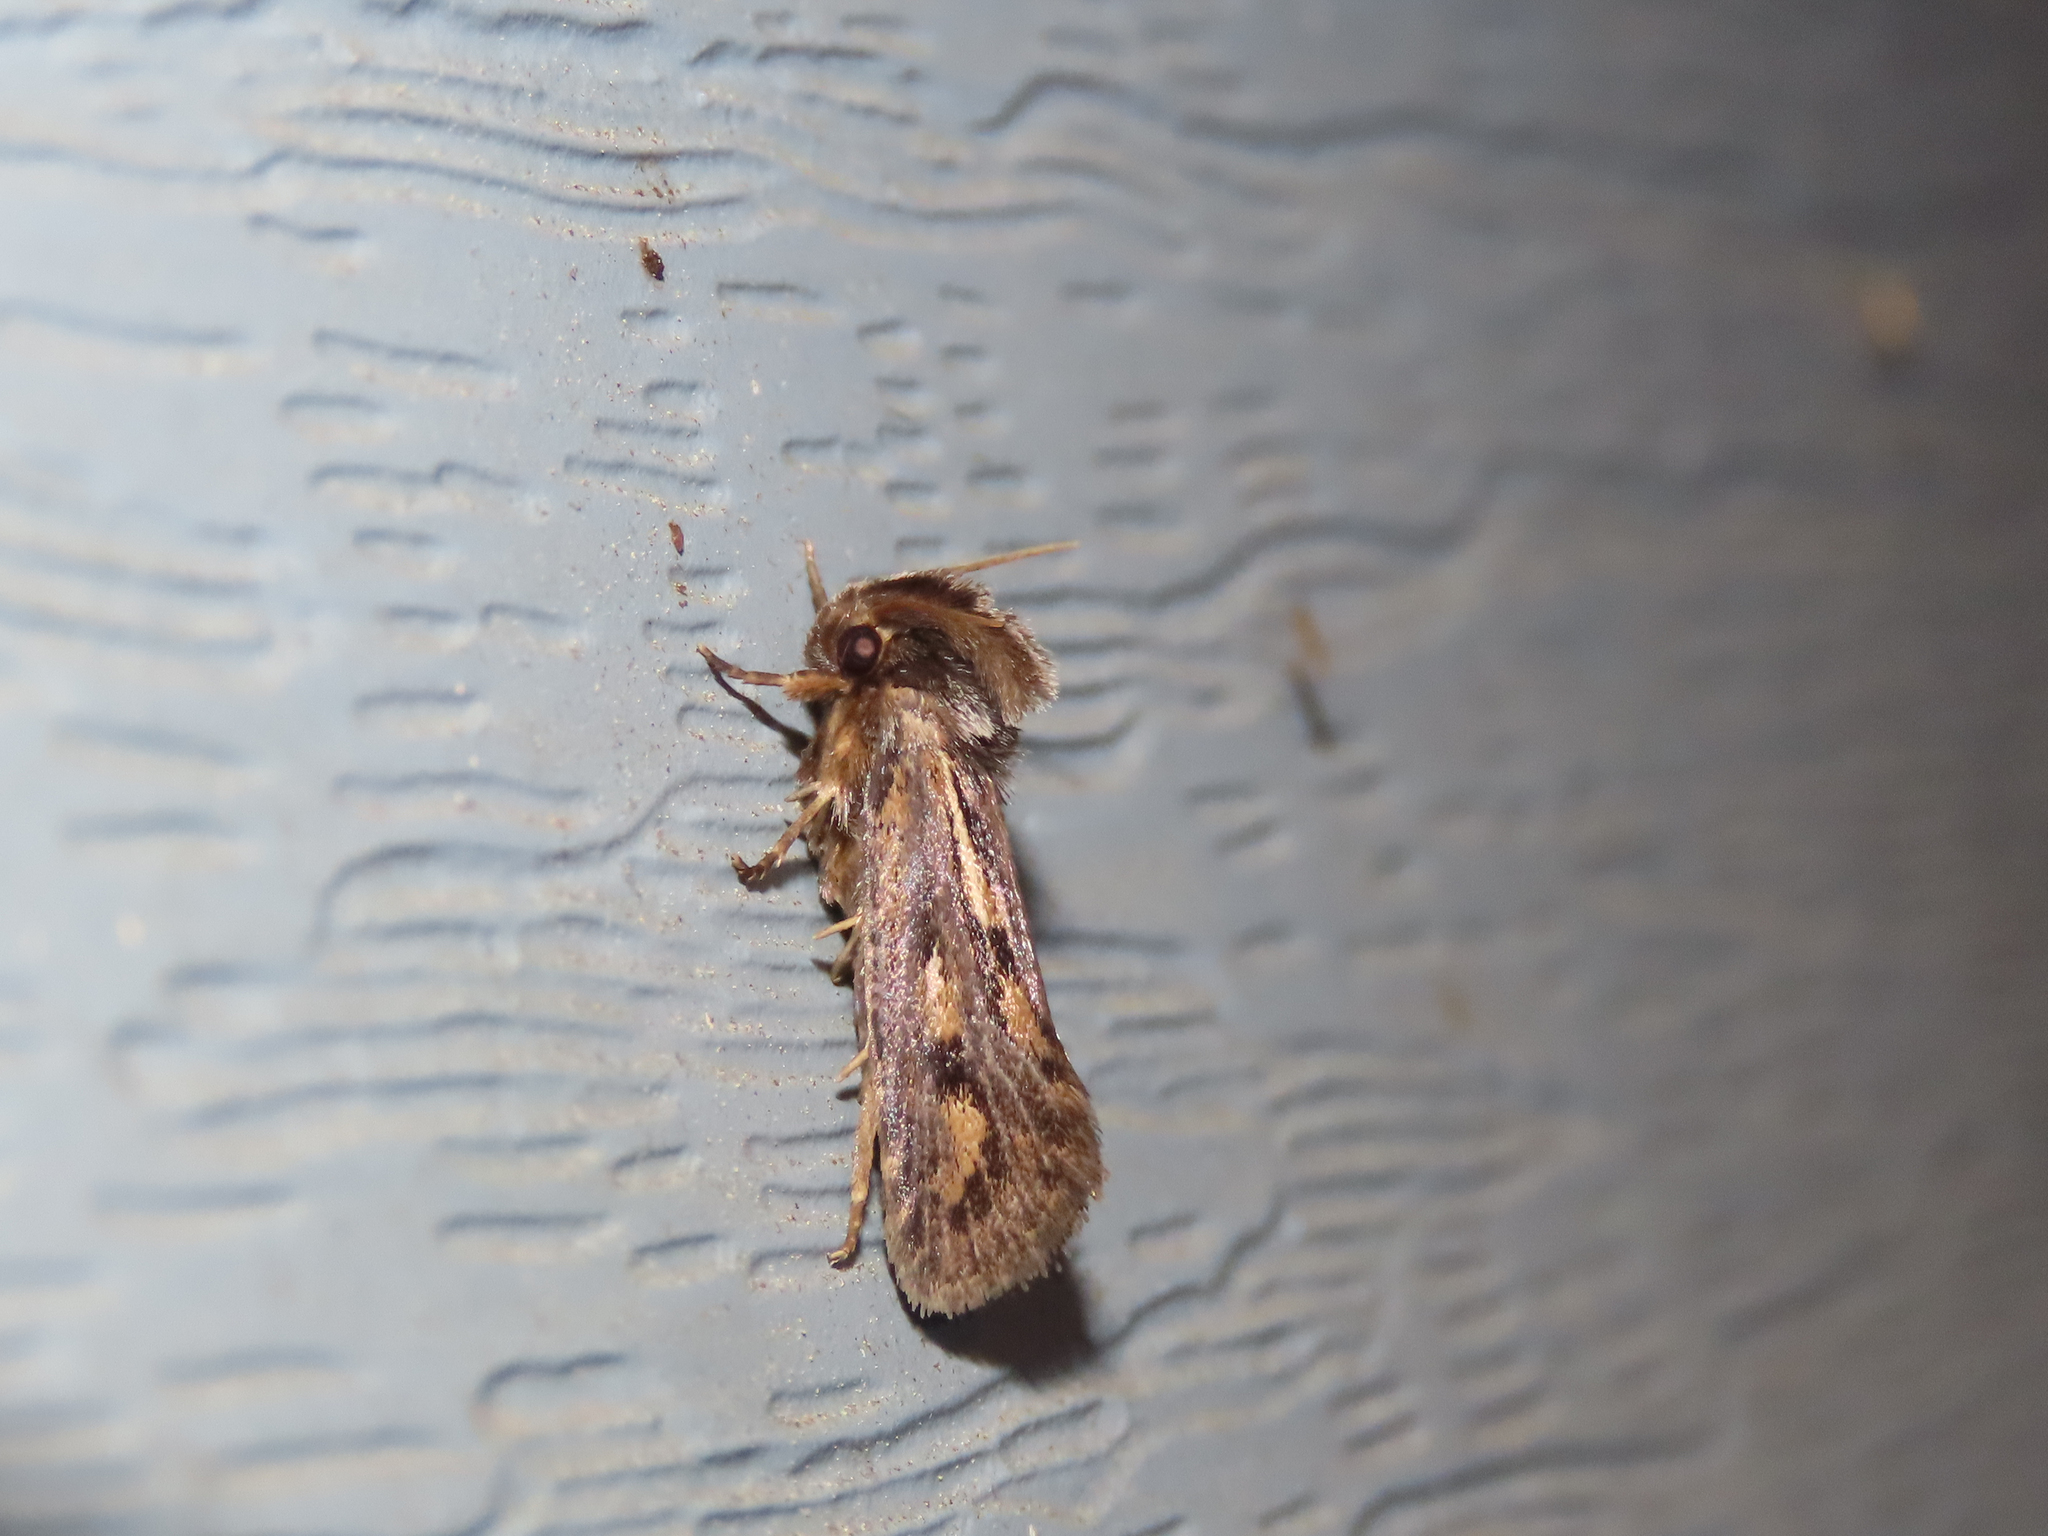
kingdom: Animalia
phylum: Arthropoda
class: Insecta
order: Lepidoptera
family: Tineidae
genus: Acrolophus
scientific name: Acrolophus popeanella
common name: Clemens' grass tubeworm moth
